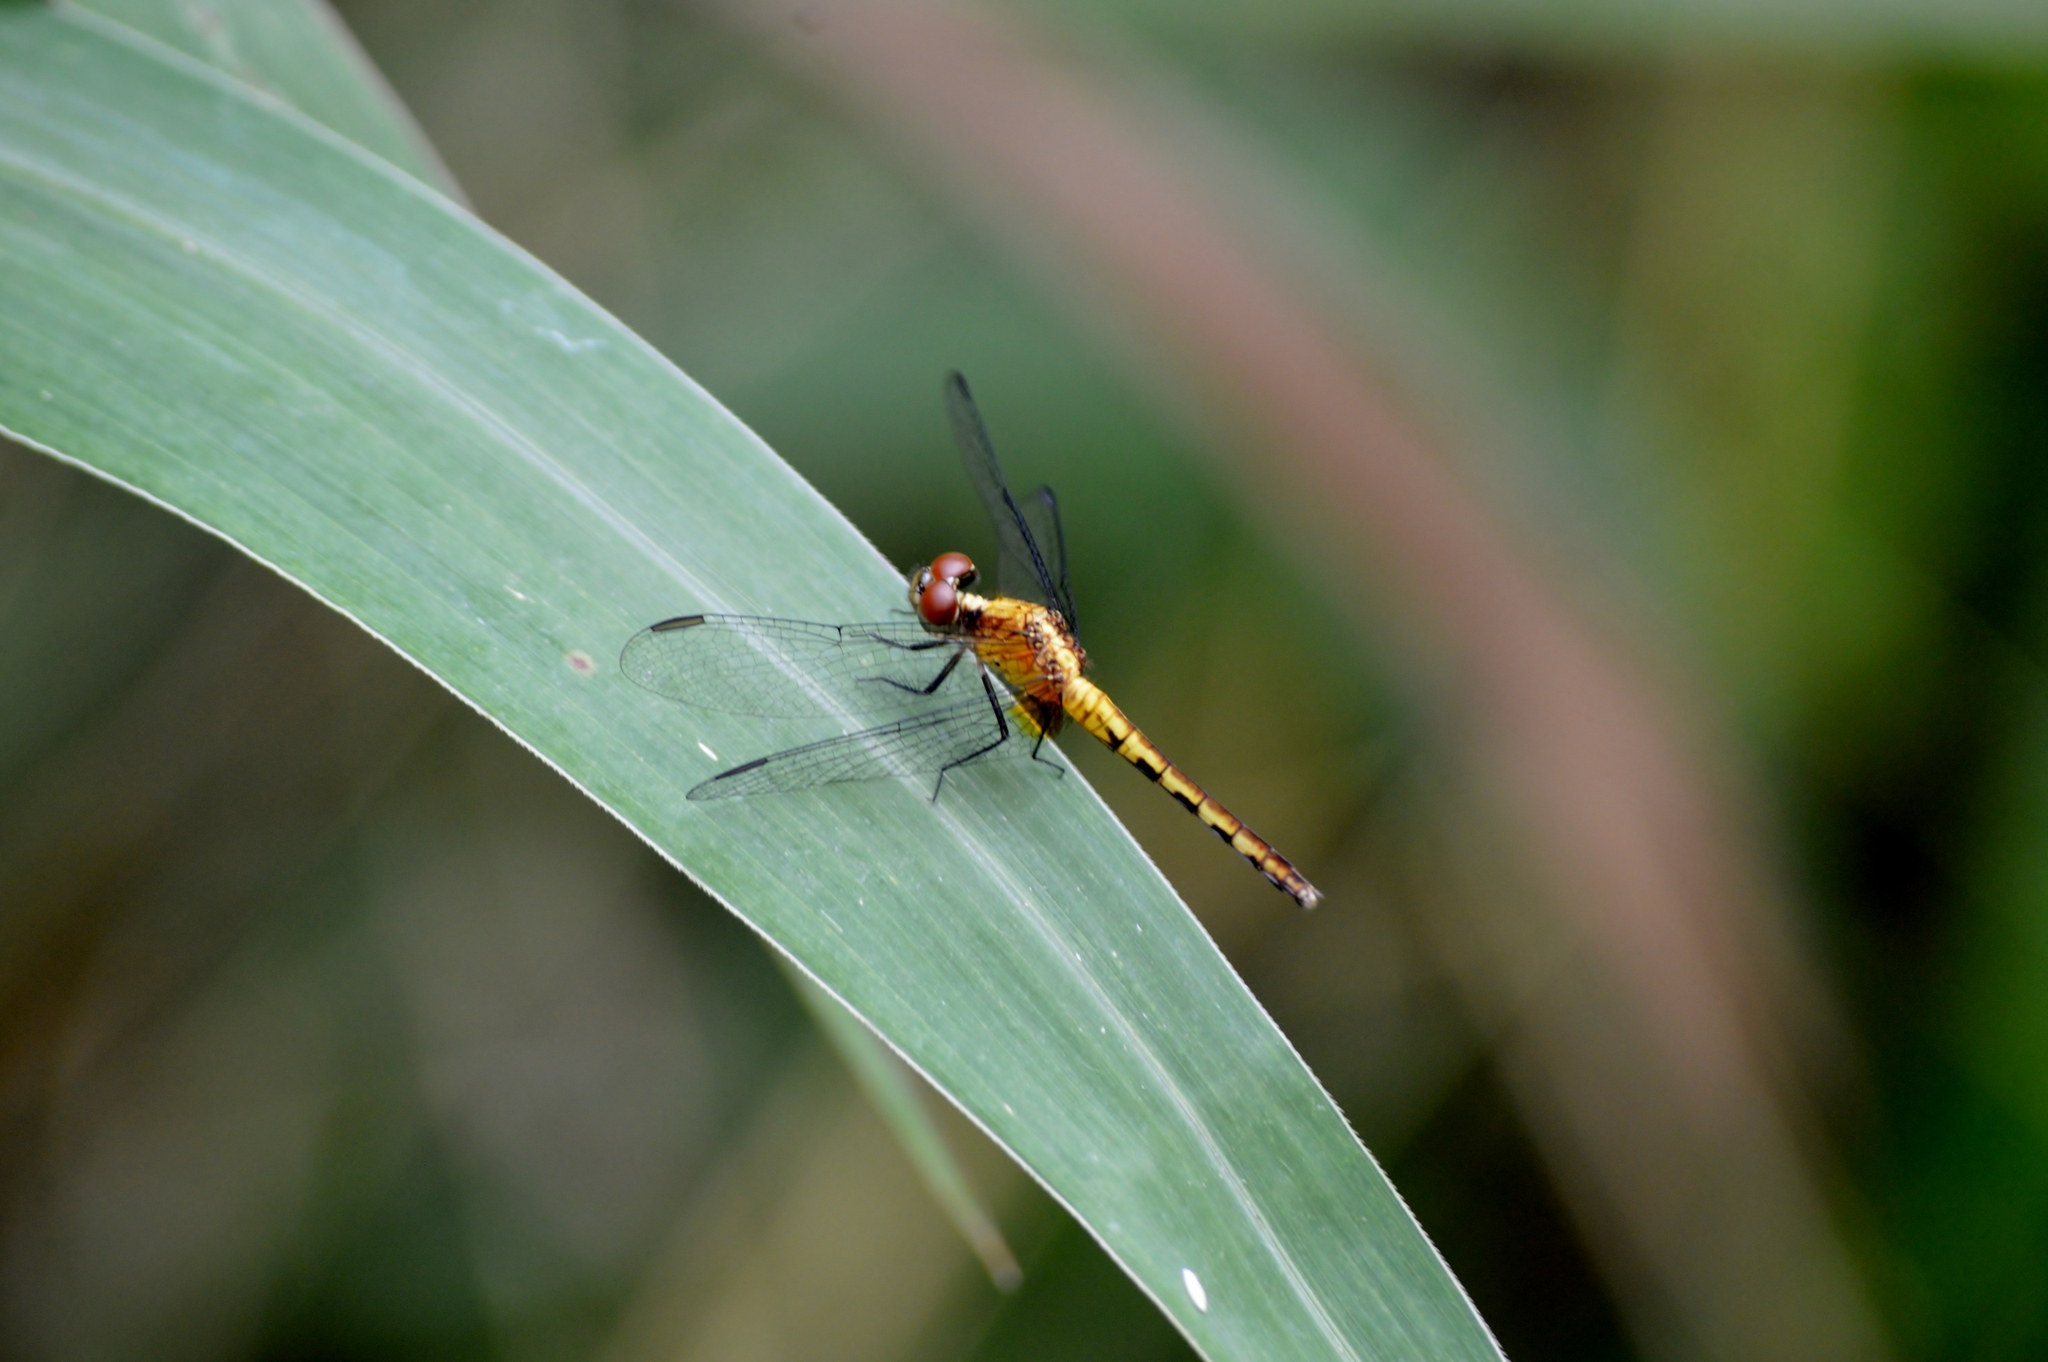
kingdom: Animalia
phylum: Arthropoda
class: Insecta
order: Odonata
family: Libellulidae
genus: Erythrodiplax
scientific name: Erythrodiplax umbrata
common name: Band-winged dragonlet
